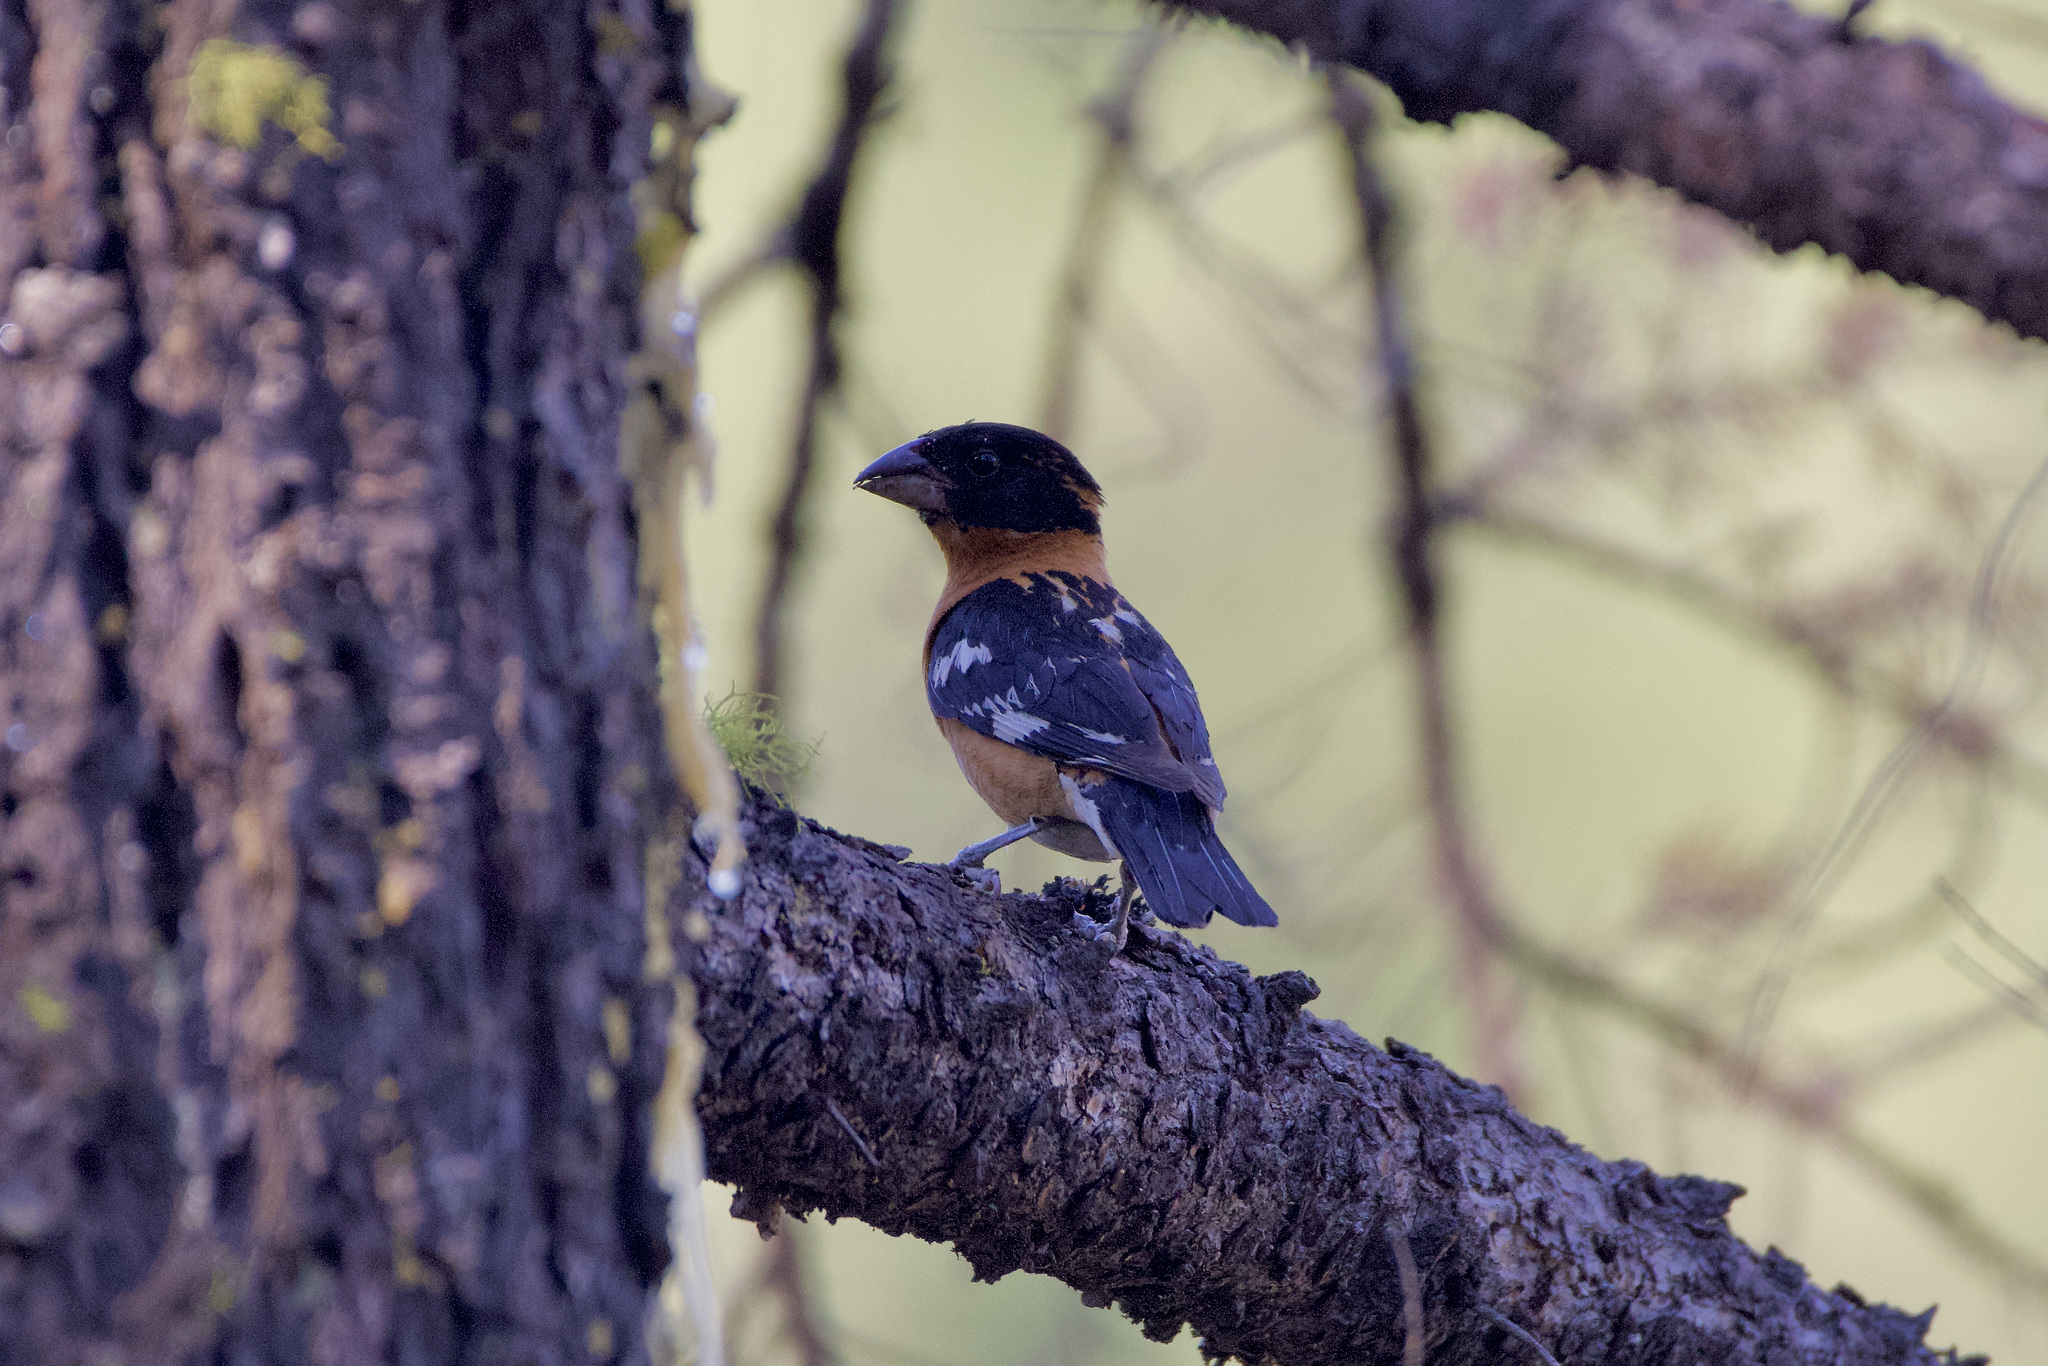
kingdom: Animalia
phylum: Chordata
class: Aves
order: Passeriformes
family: Cardinalidae
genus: Pheucticus
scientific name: Pheucticus melanocephalus
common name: Black-headed grosbeak
